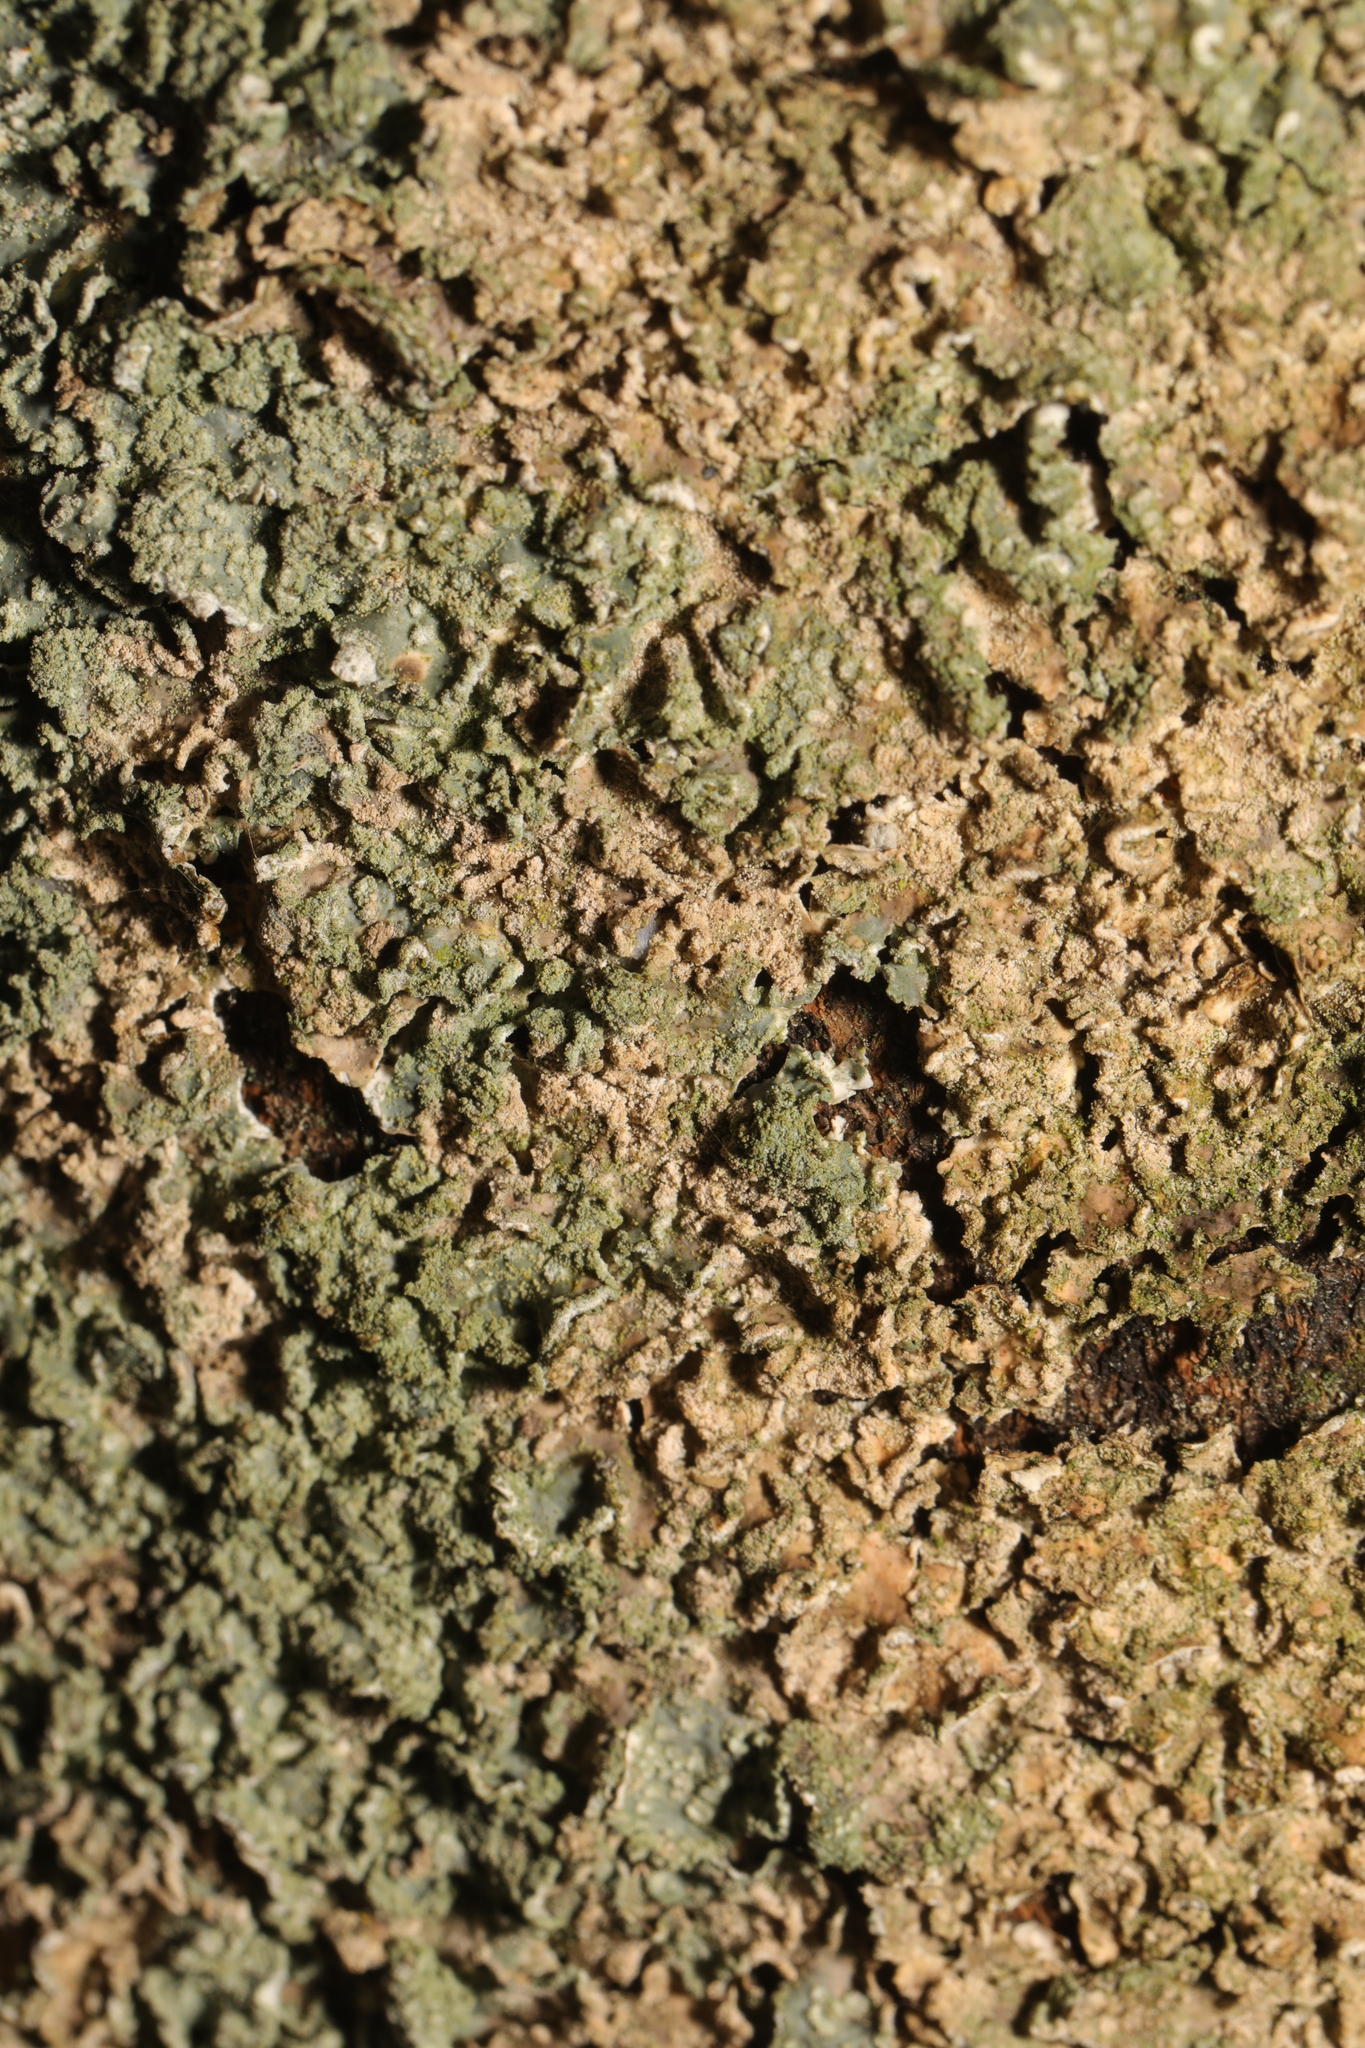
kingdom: Fungi
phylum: Ascomycota
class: Lecanoromycetes
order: Lecanorales
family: Parmeliaceae
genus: Punctelia
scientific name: Punctelia
